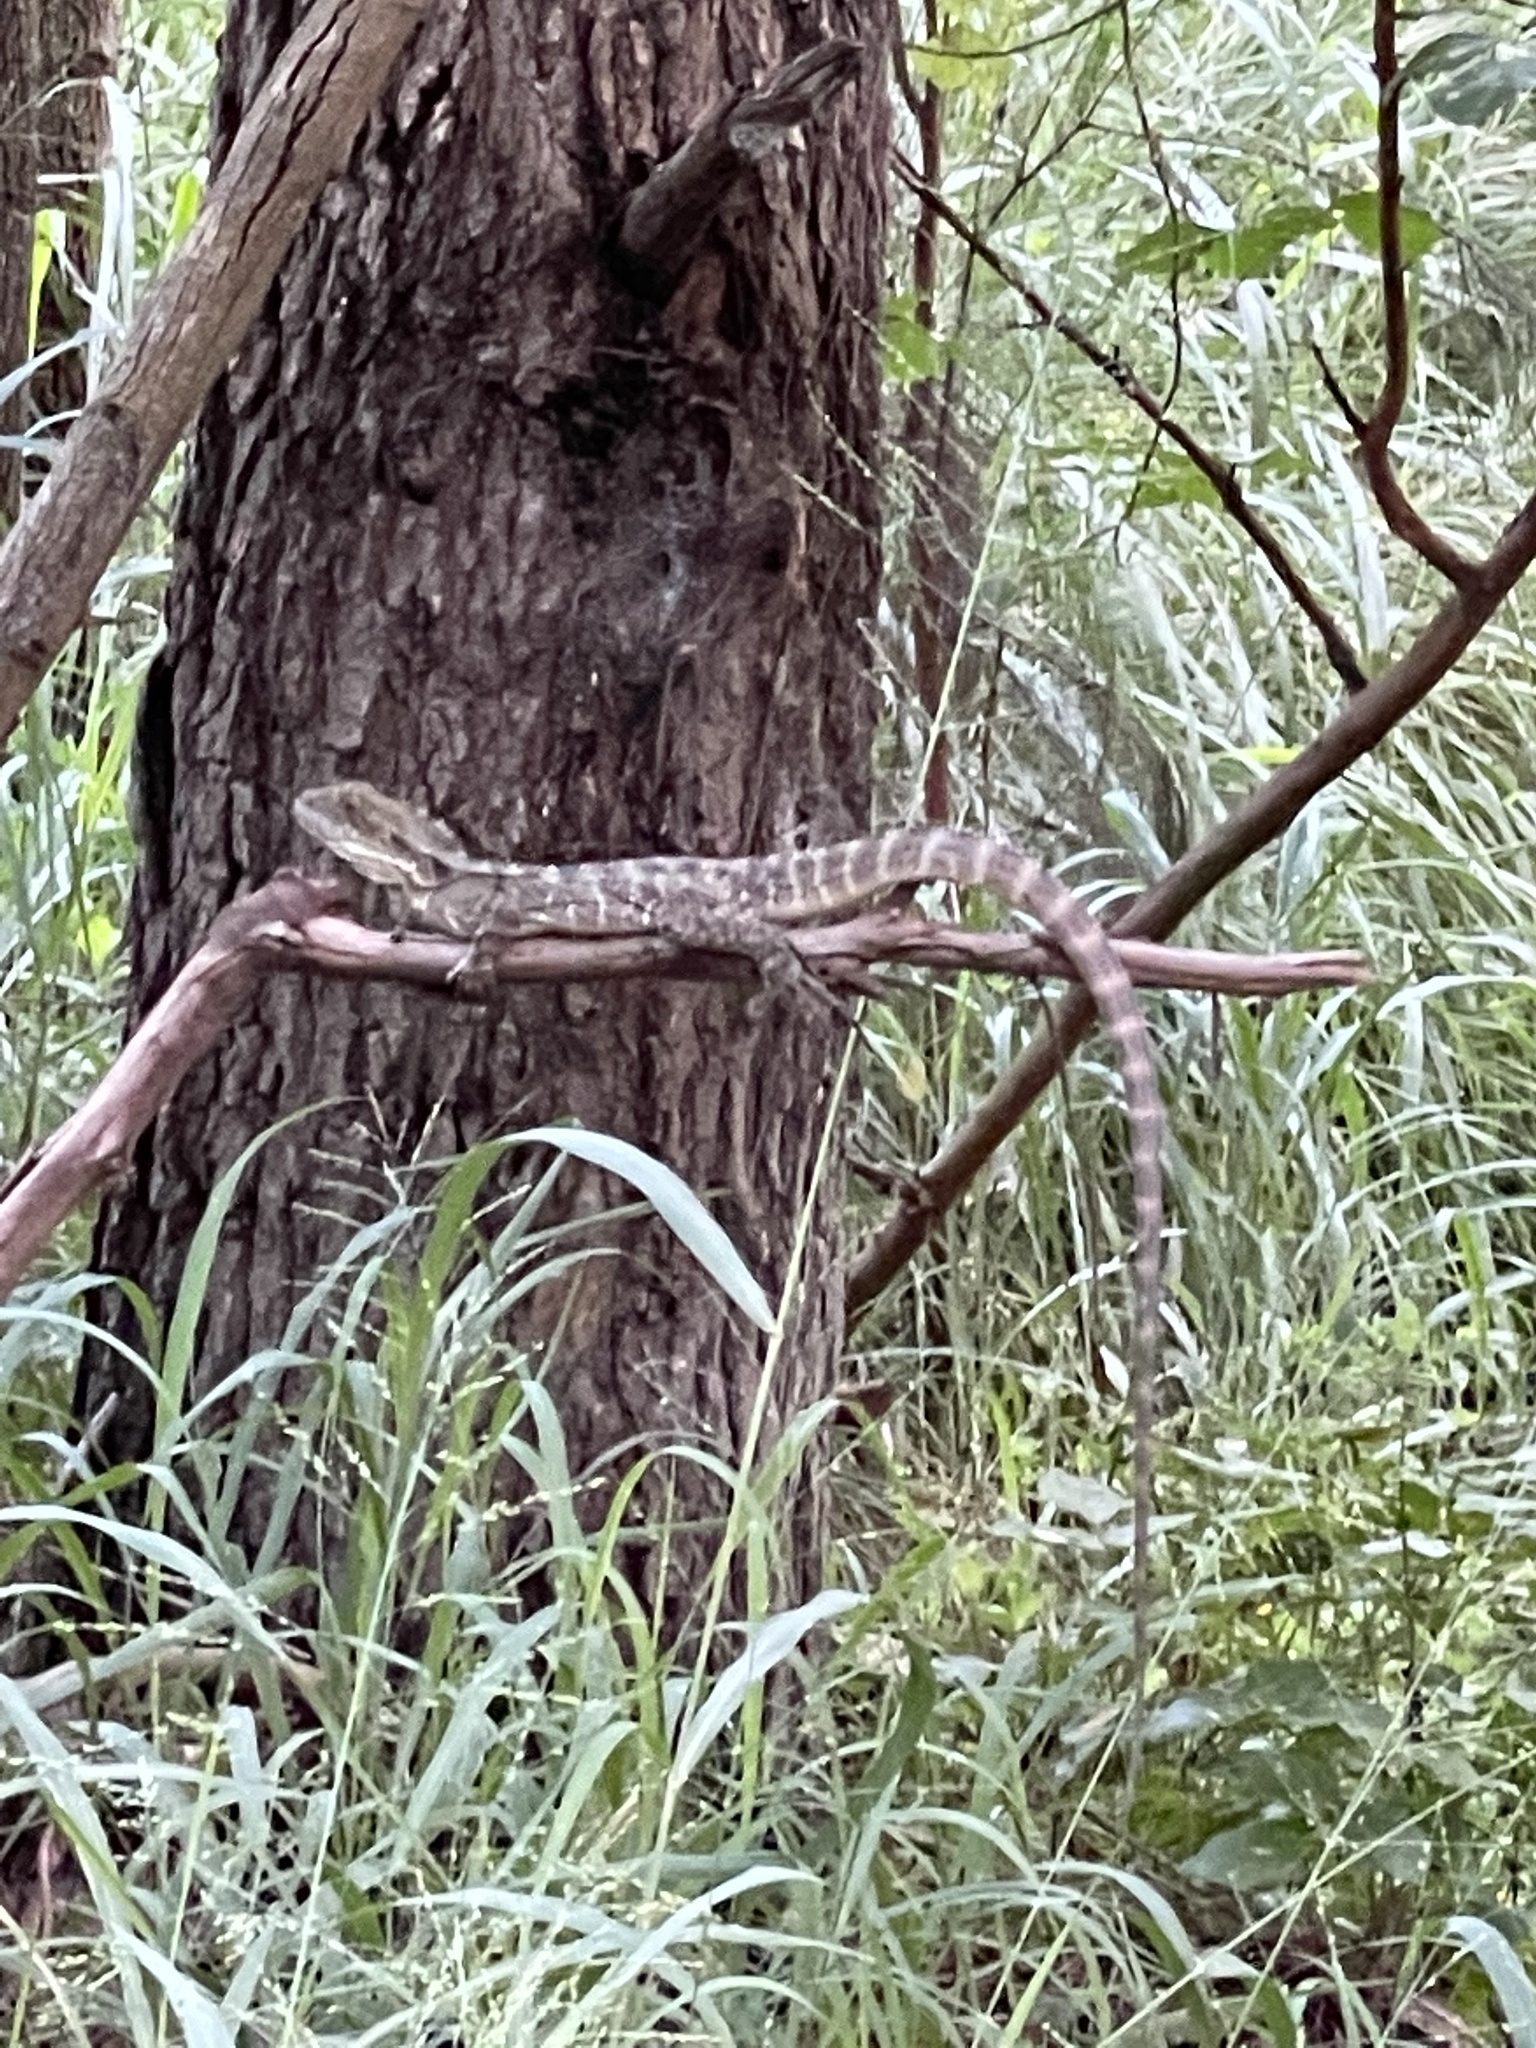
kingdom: Animalia
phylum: Chordata
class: Squamata
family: Agamidae
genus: Intellagama
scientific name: Intellagama lesueurii
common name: Eastern water dragon
